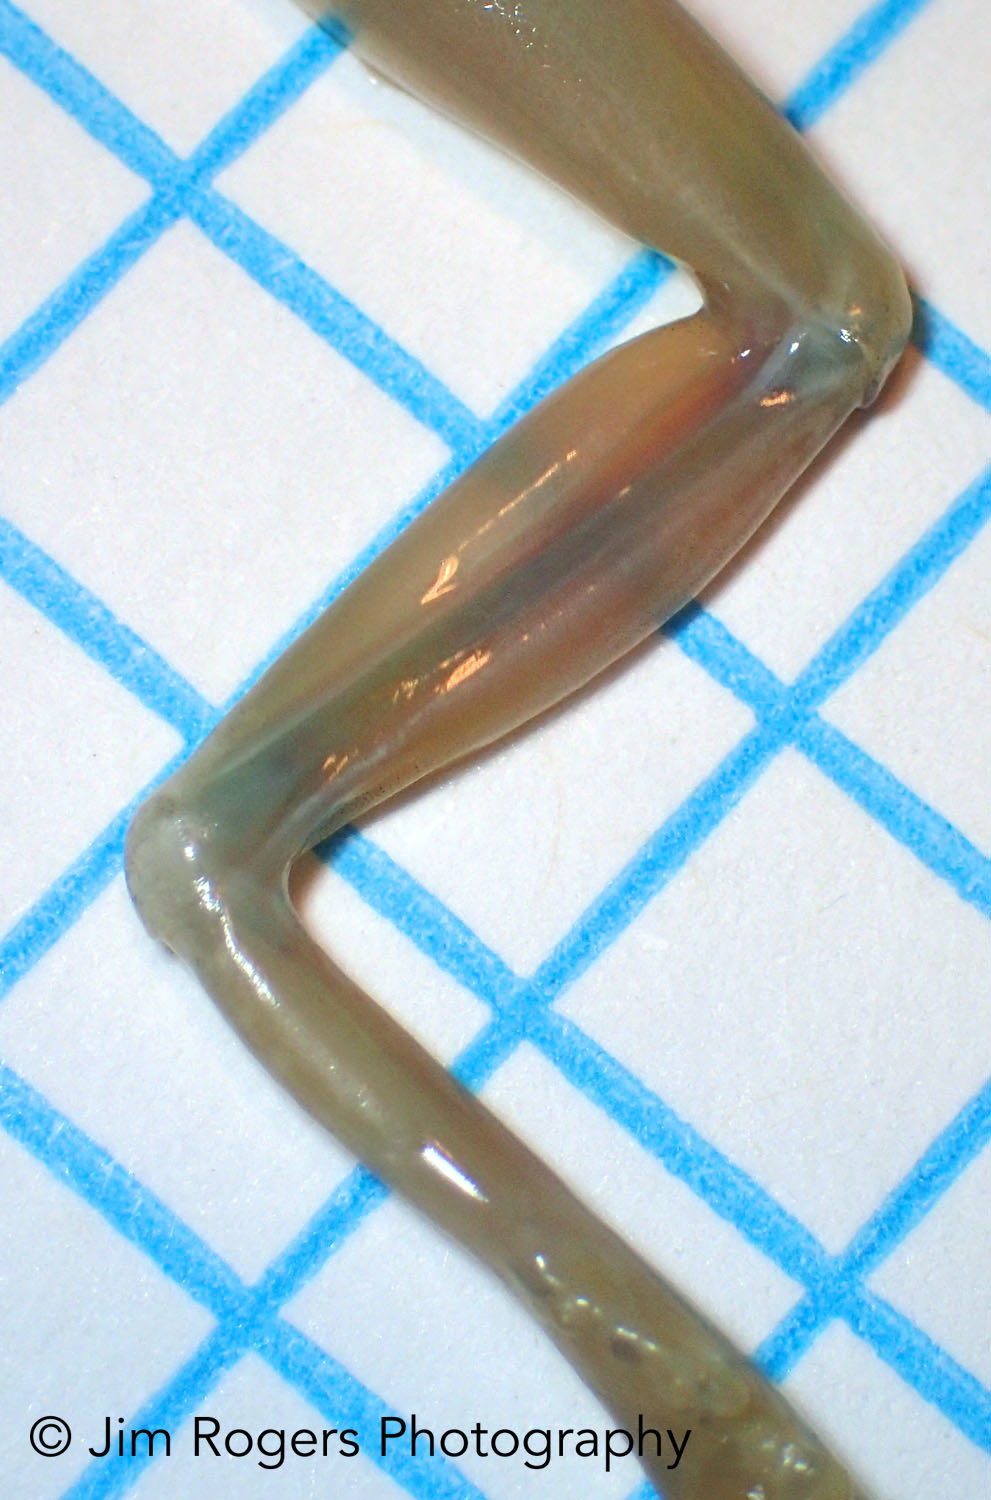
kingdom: Animalia
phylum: Chordata
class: Amphibia
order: Anura
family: Hylidae
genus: Osteopilus
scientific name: Osteopilus septentrionalis
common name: Cuban treefrog
